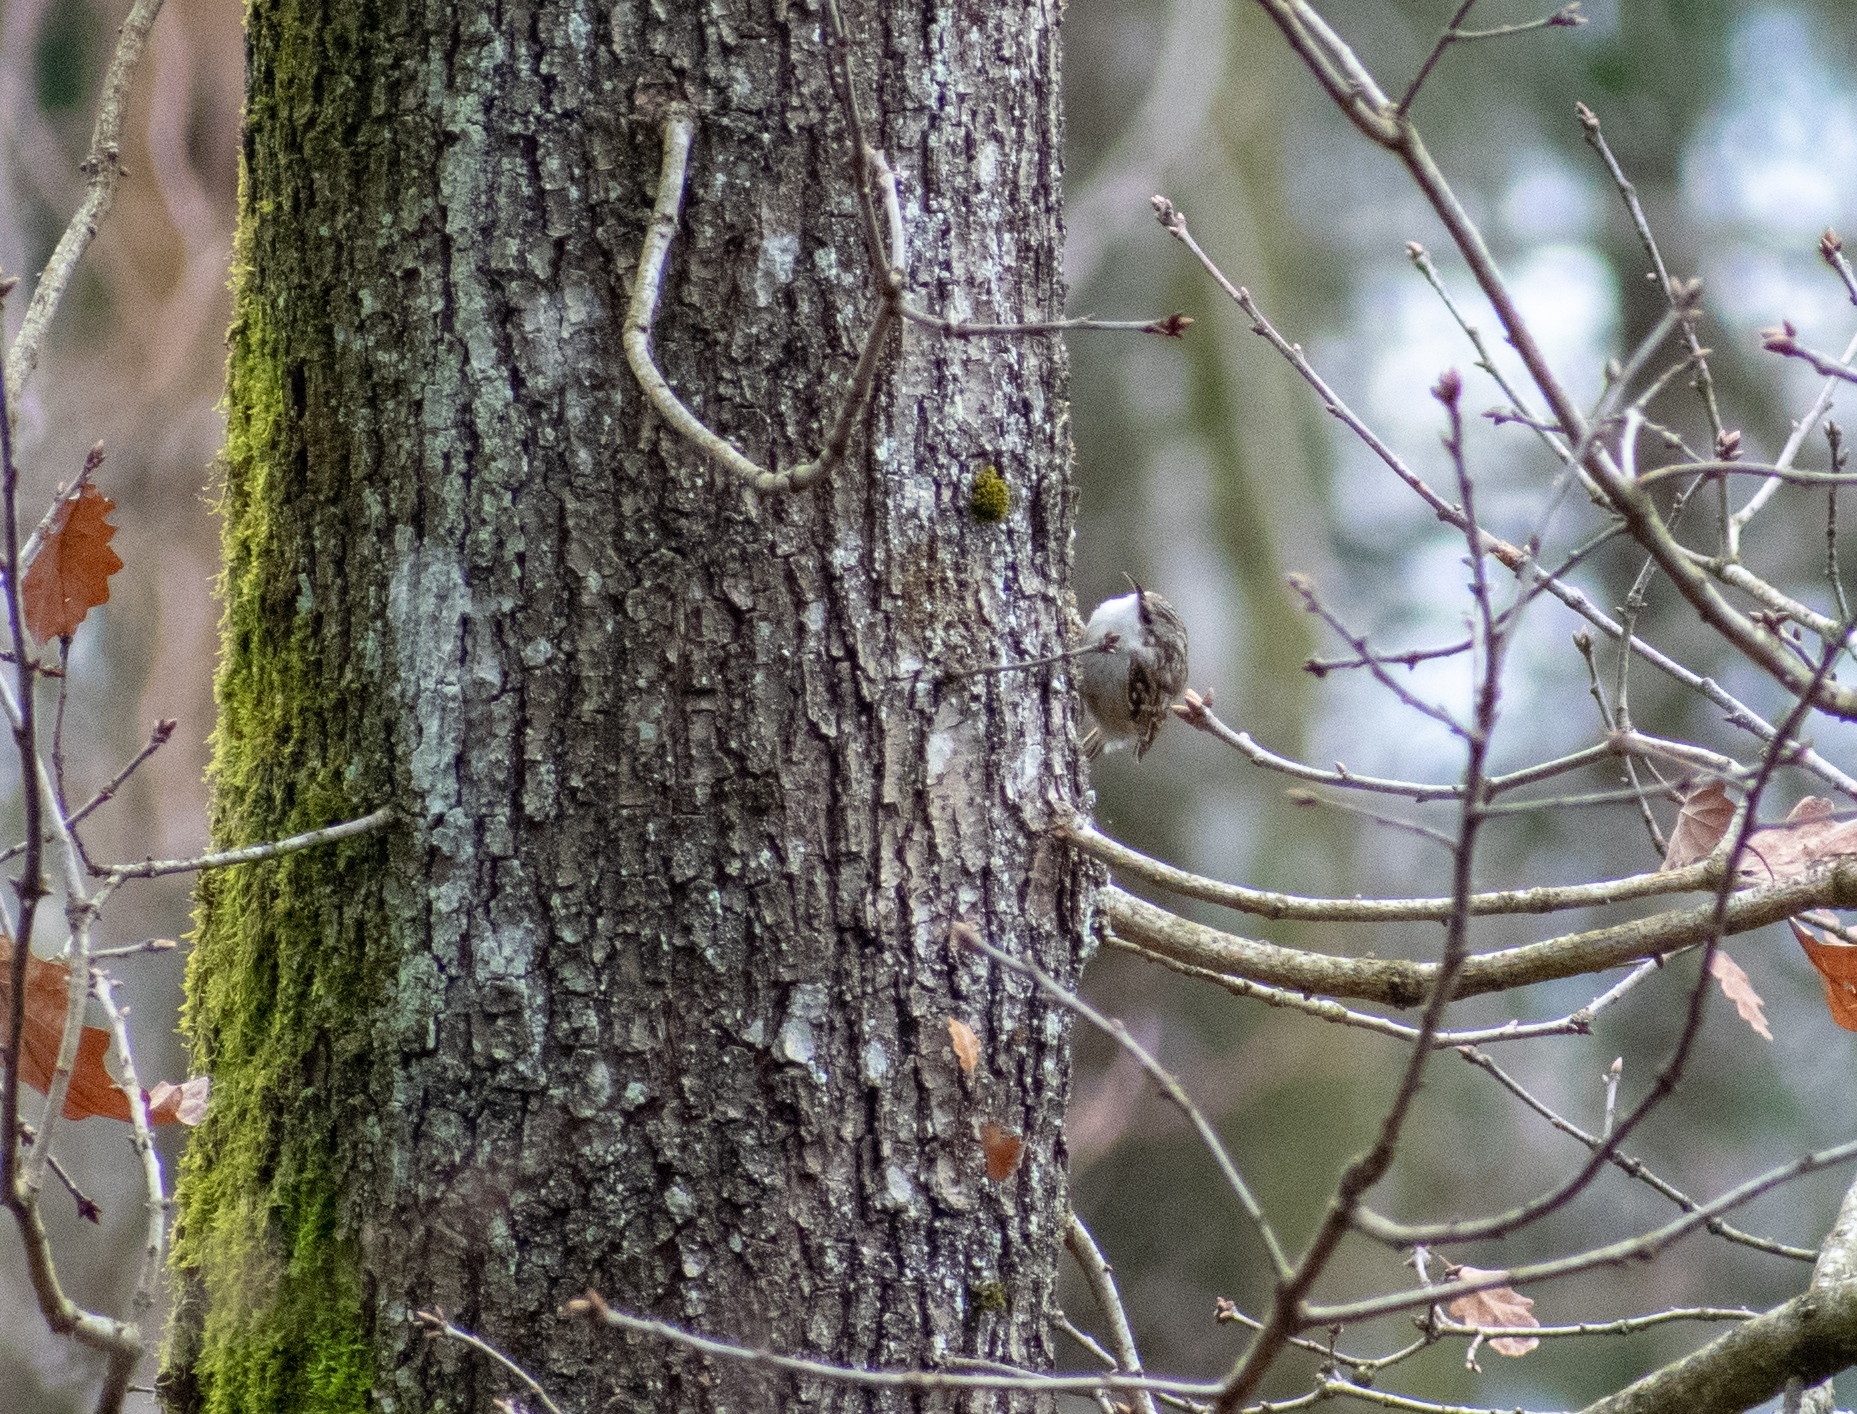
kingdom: Animalia
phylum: Chordata
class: Aves
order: Passeriformes
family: Certhiidae
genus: Certhia
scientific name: Certhia familiaris
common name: Eurasian treecreeper
